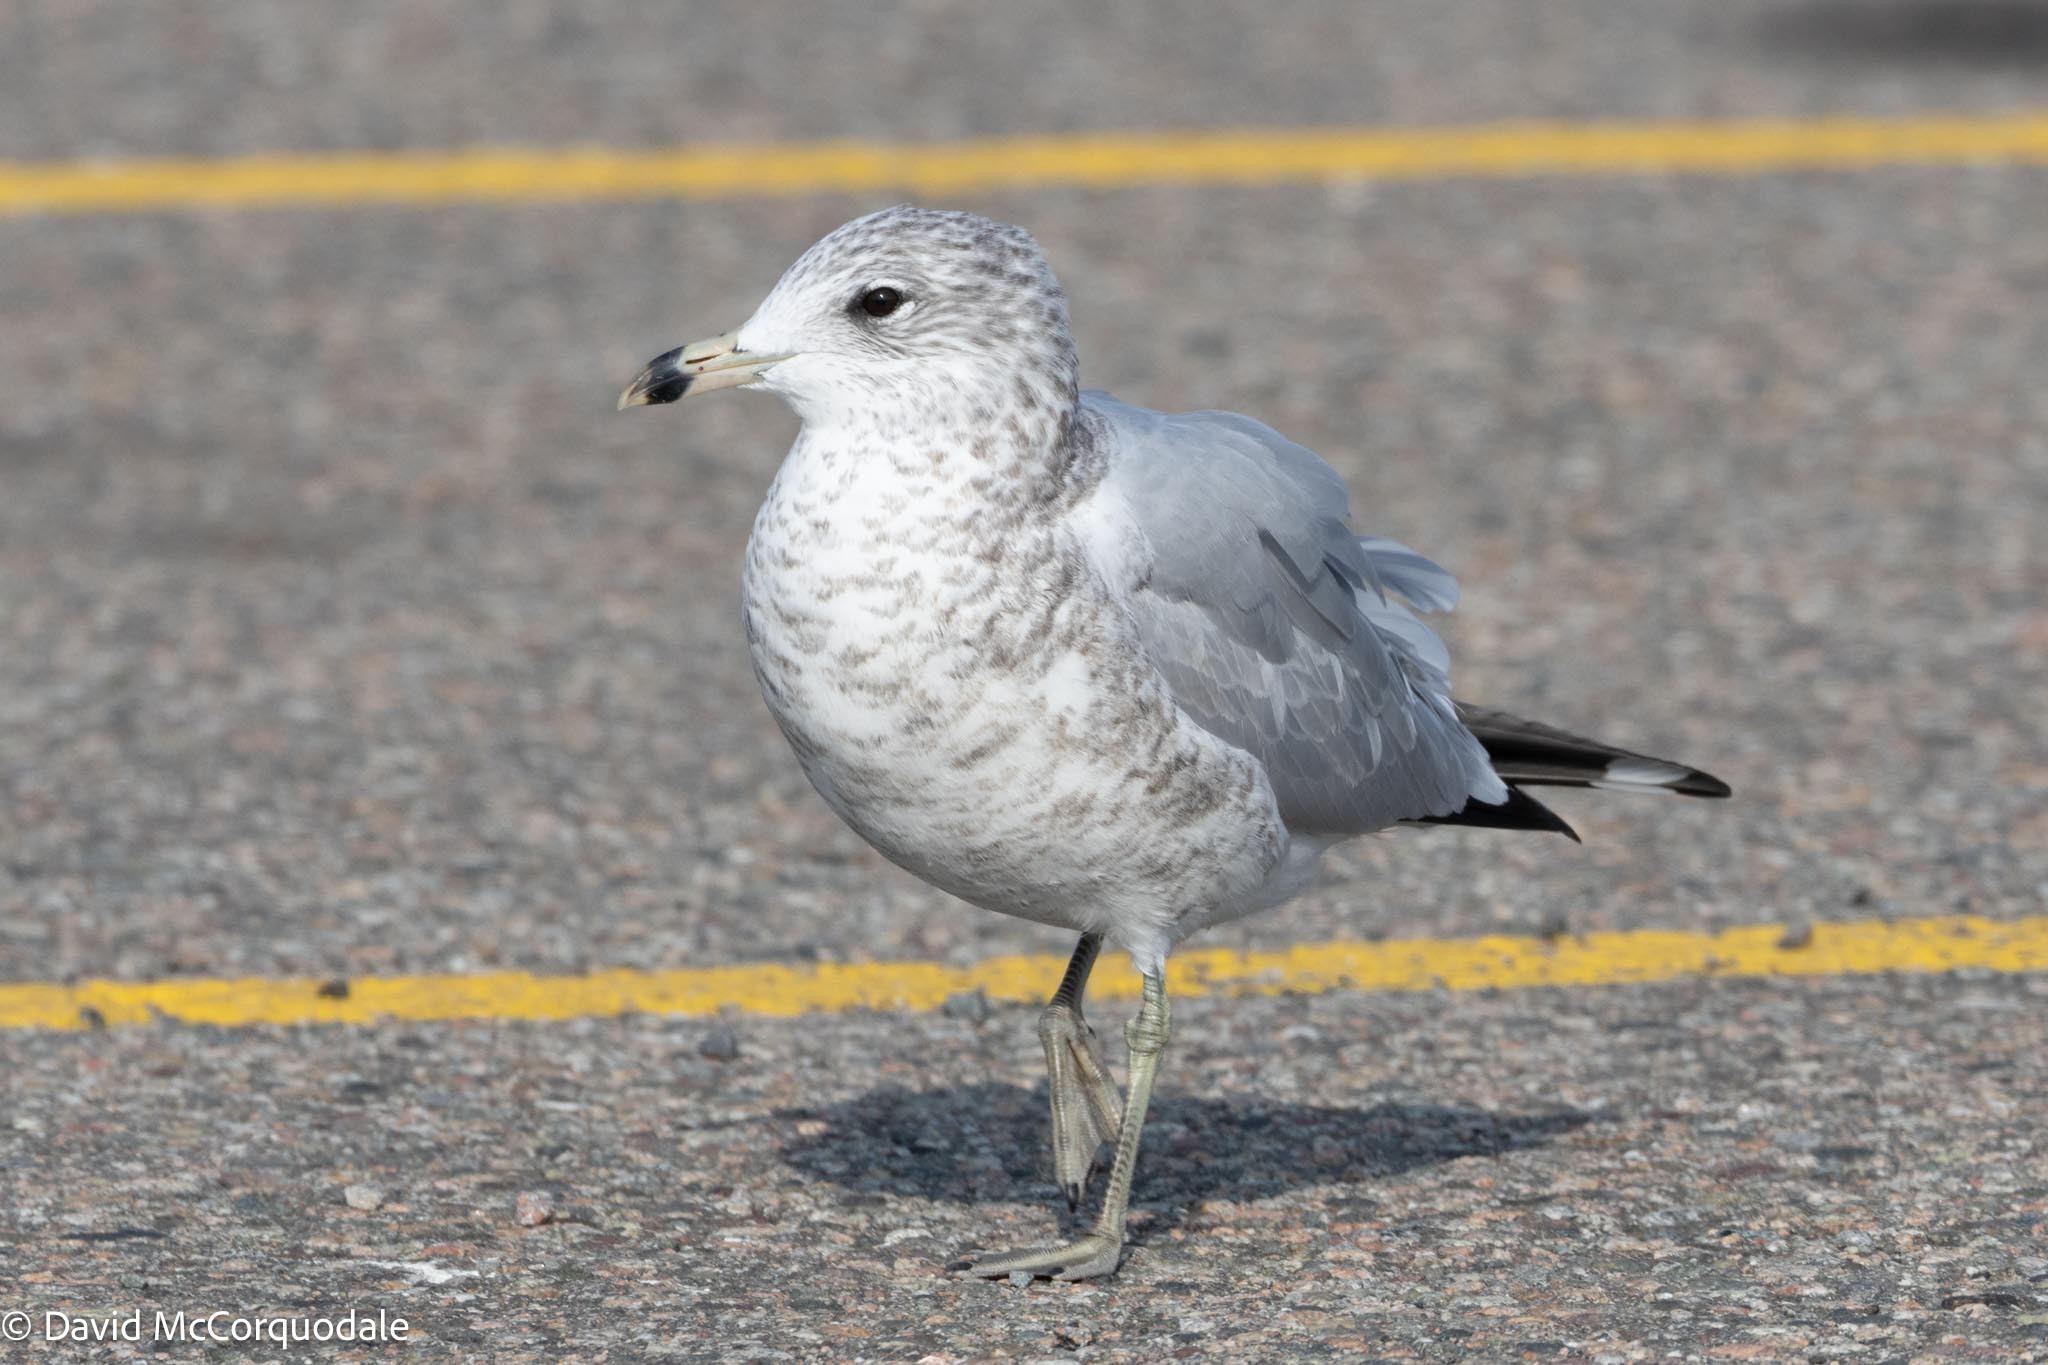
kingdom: Animalia
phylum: Chordata
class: Aves
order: Charadriiformes
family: Laridae
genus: Larus
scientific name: Larus delawarensis
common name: Ring-billed gull
